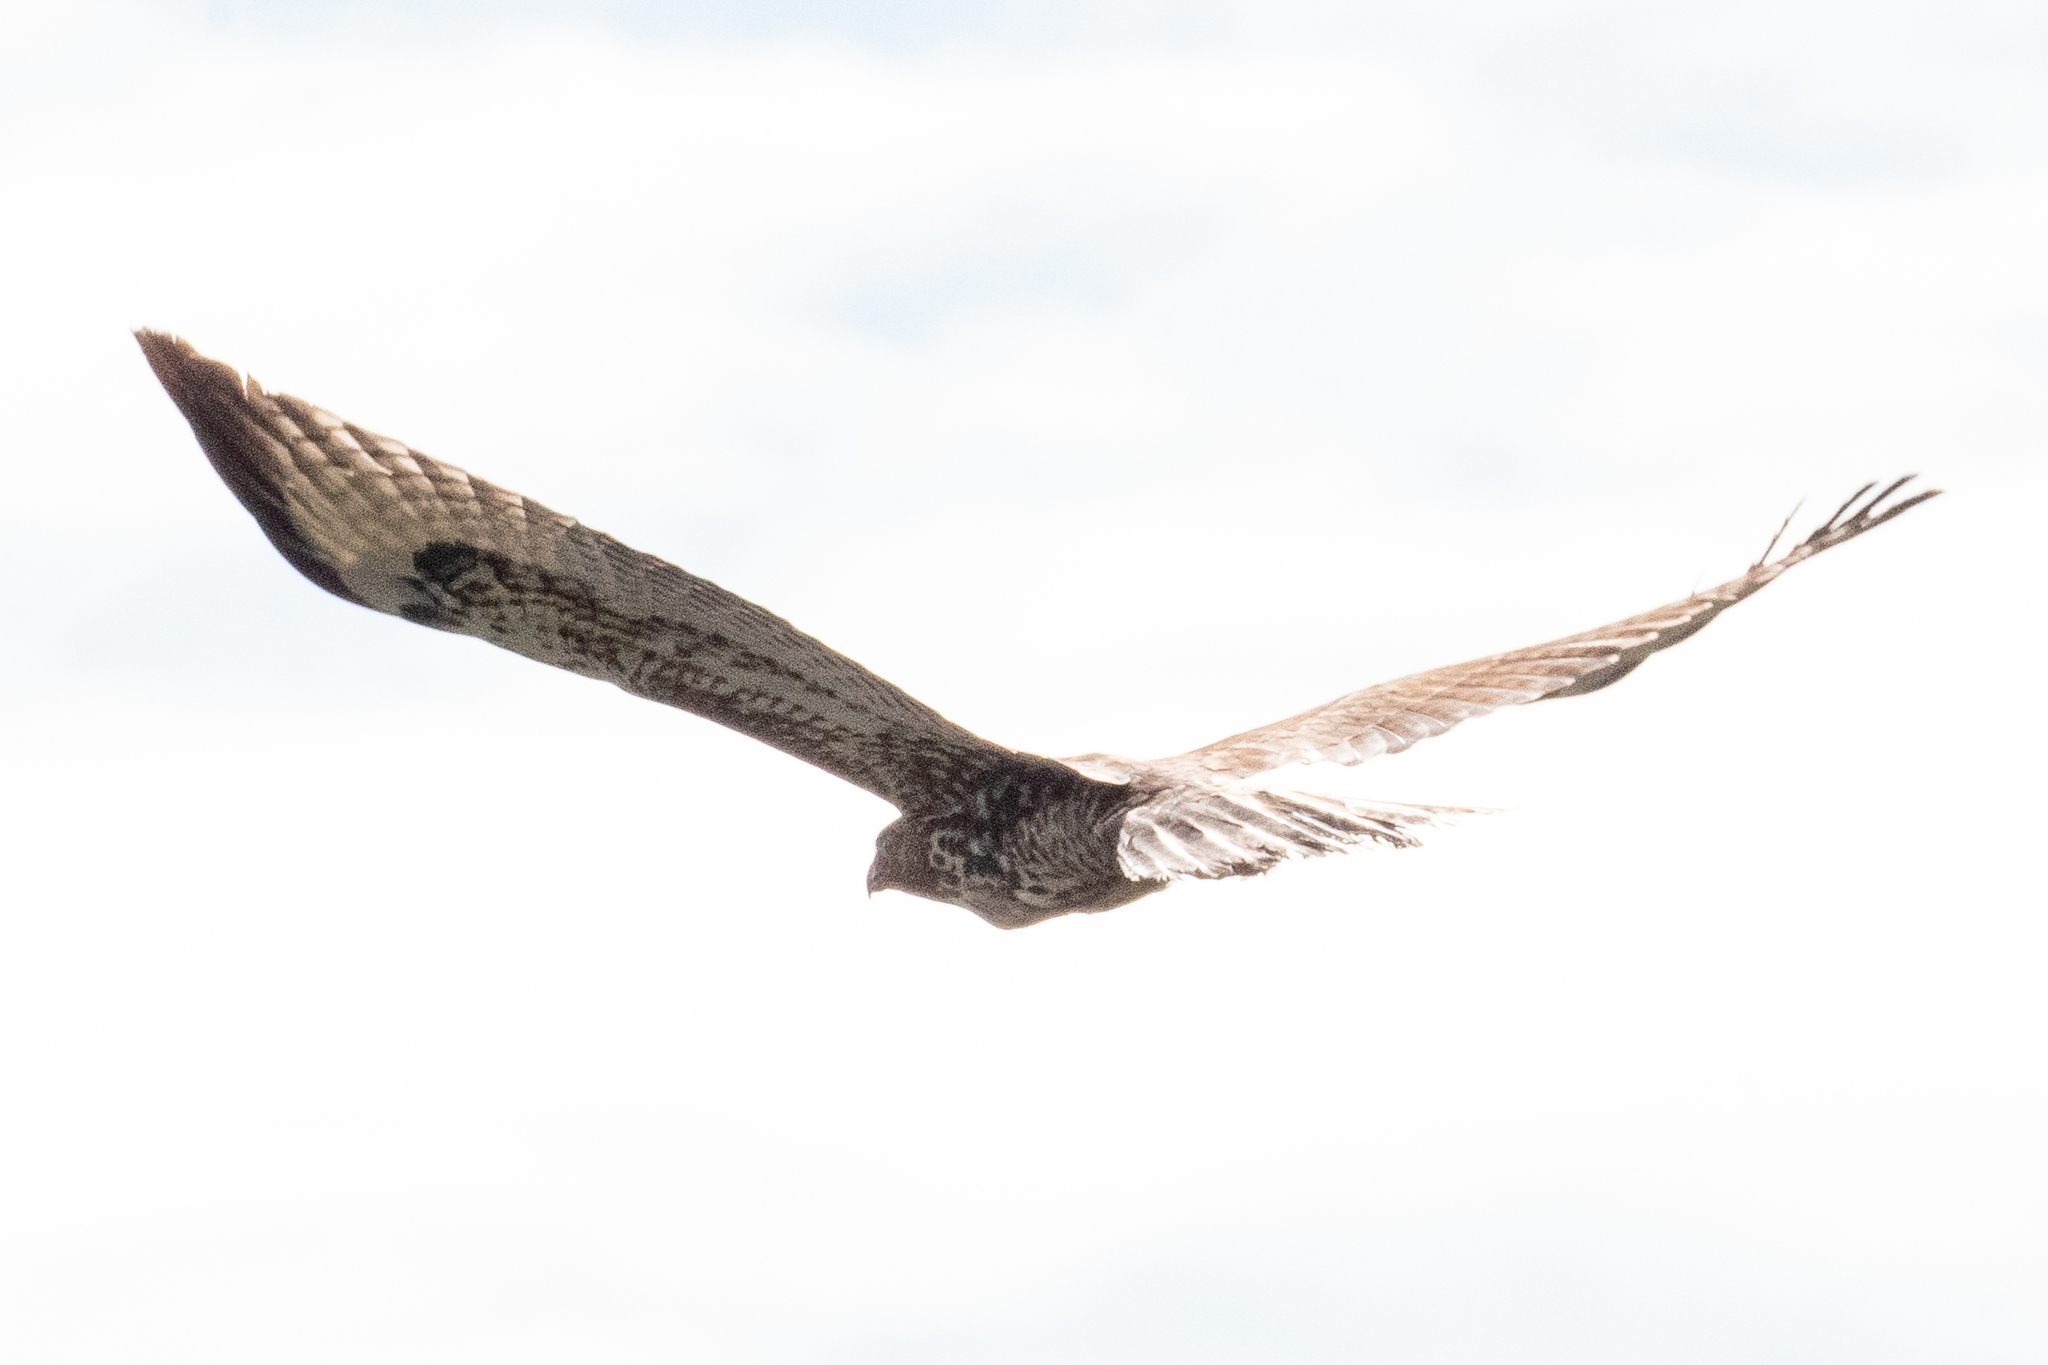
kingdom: Animalia
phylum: Chordata
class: Aves
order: Accipitriformes
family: Accipitridae
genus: Buteo
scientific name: Buteo jamaicensis
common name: Red-tailed hawk
